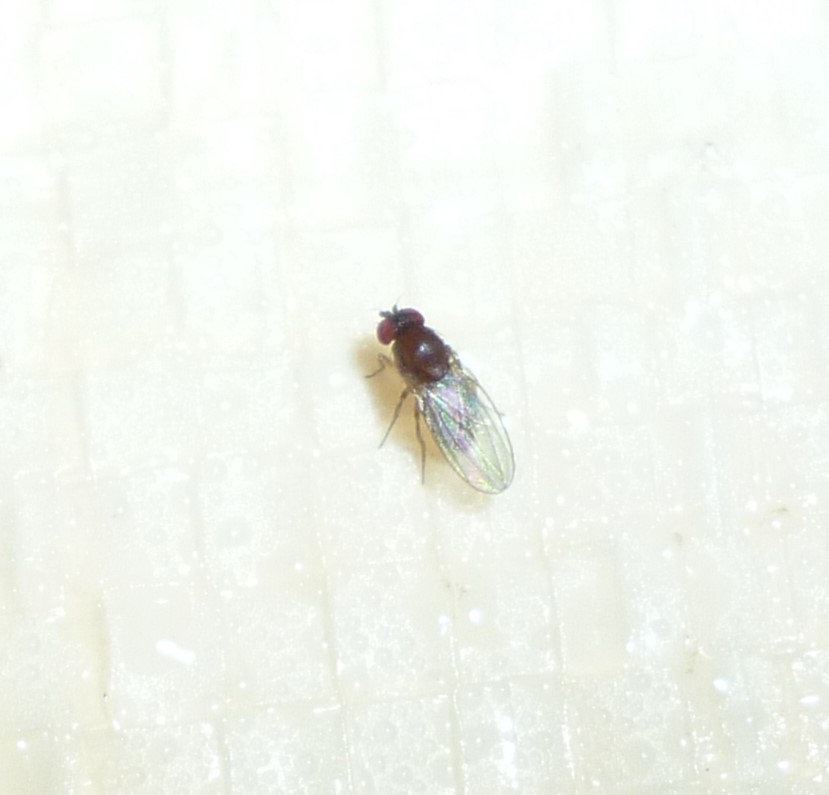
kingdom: Animalia
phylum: Arthropoda
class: Insecta
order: Diptera
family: Drosophilidae
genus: Drosophila
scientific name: Drosophila
